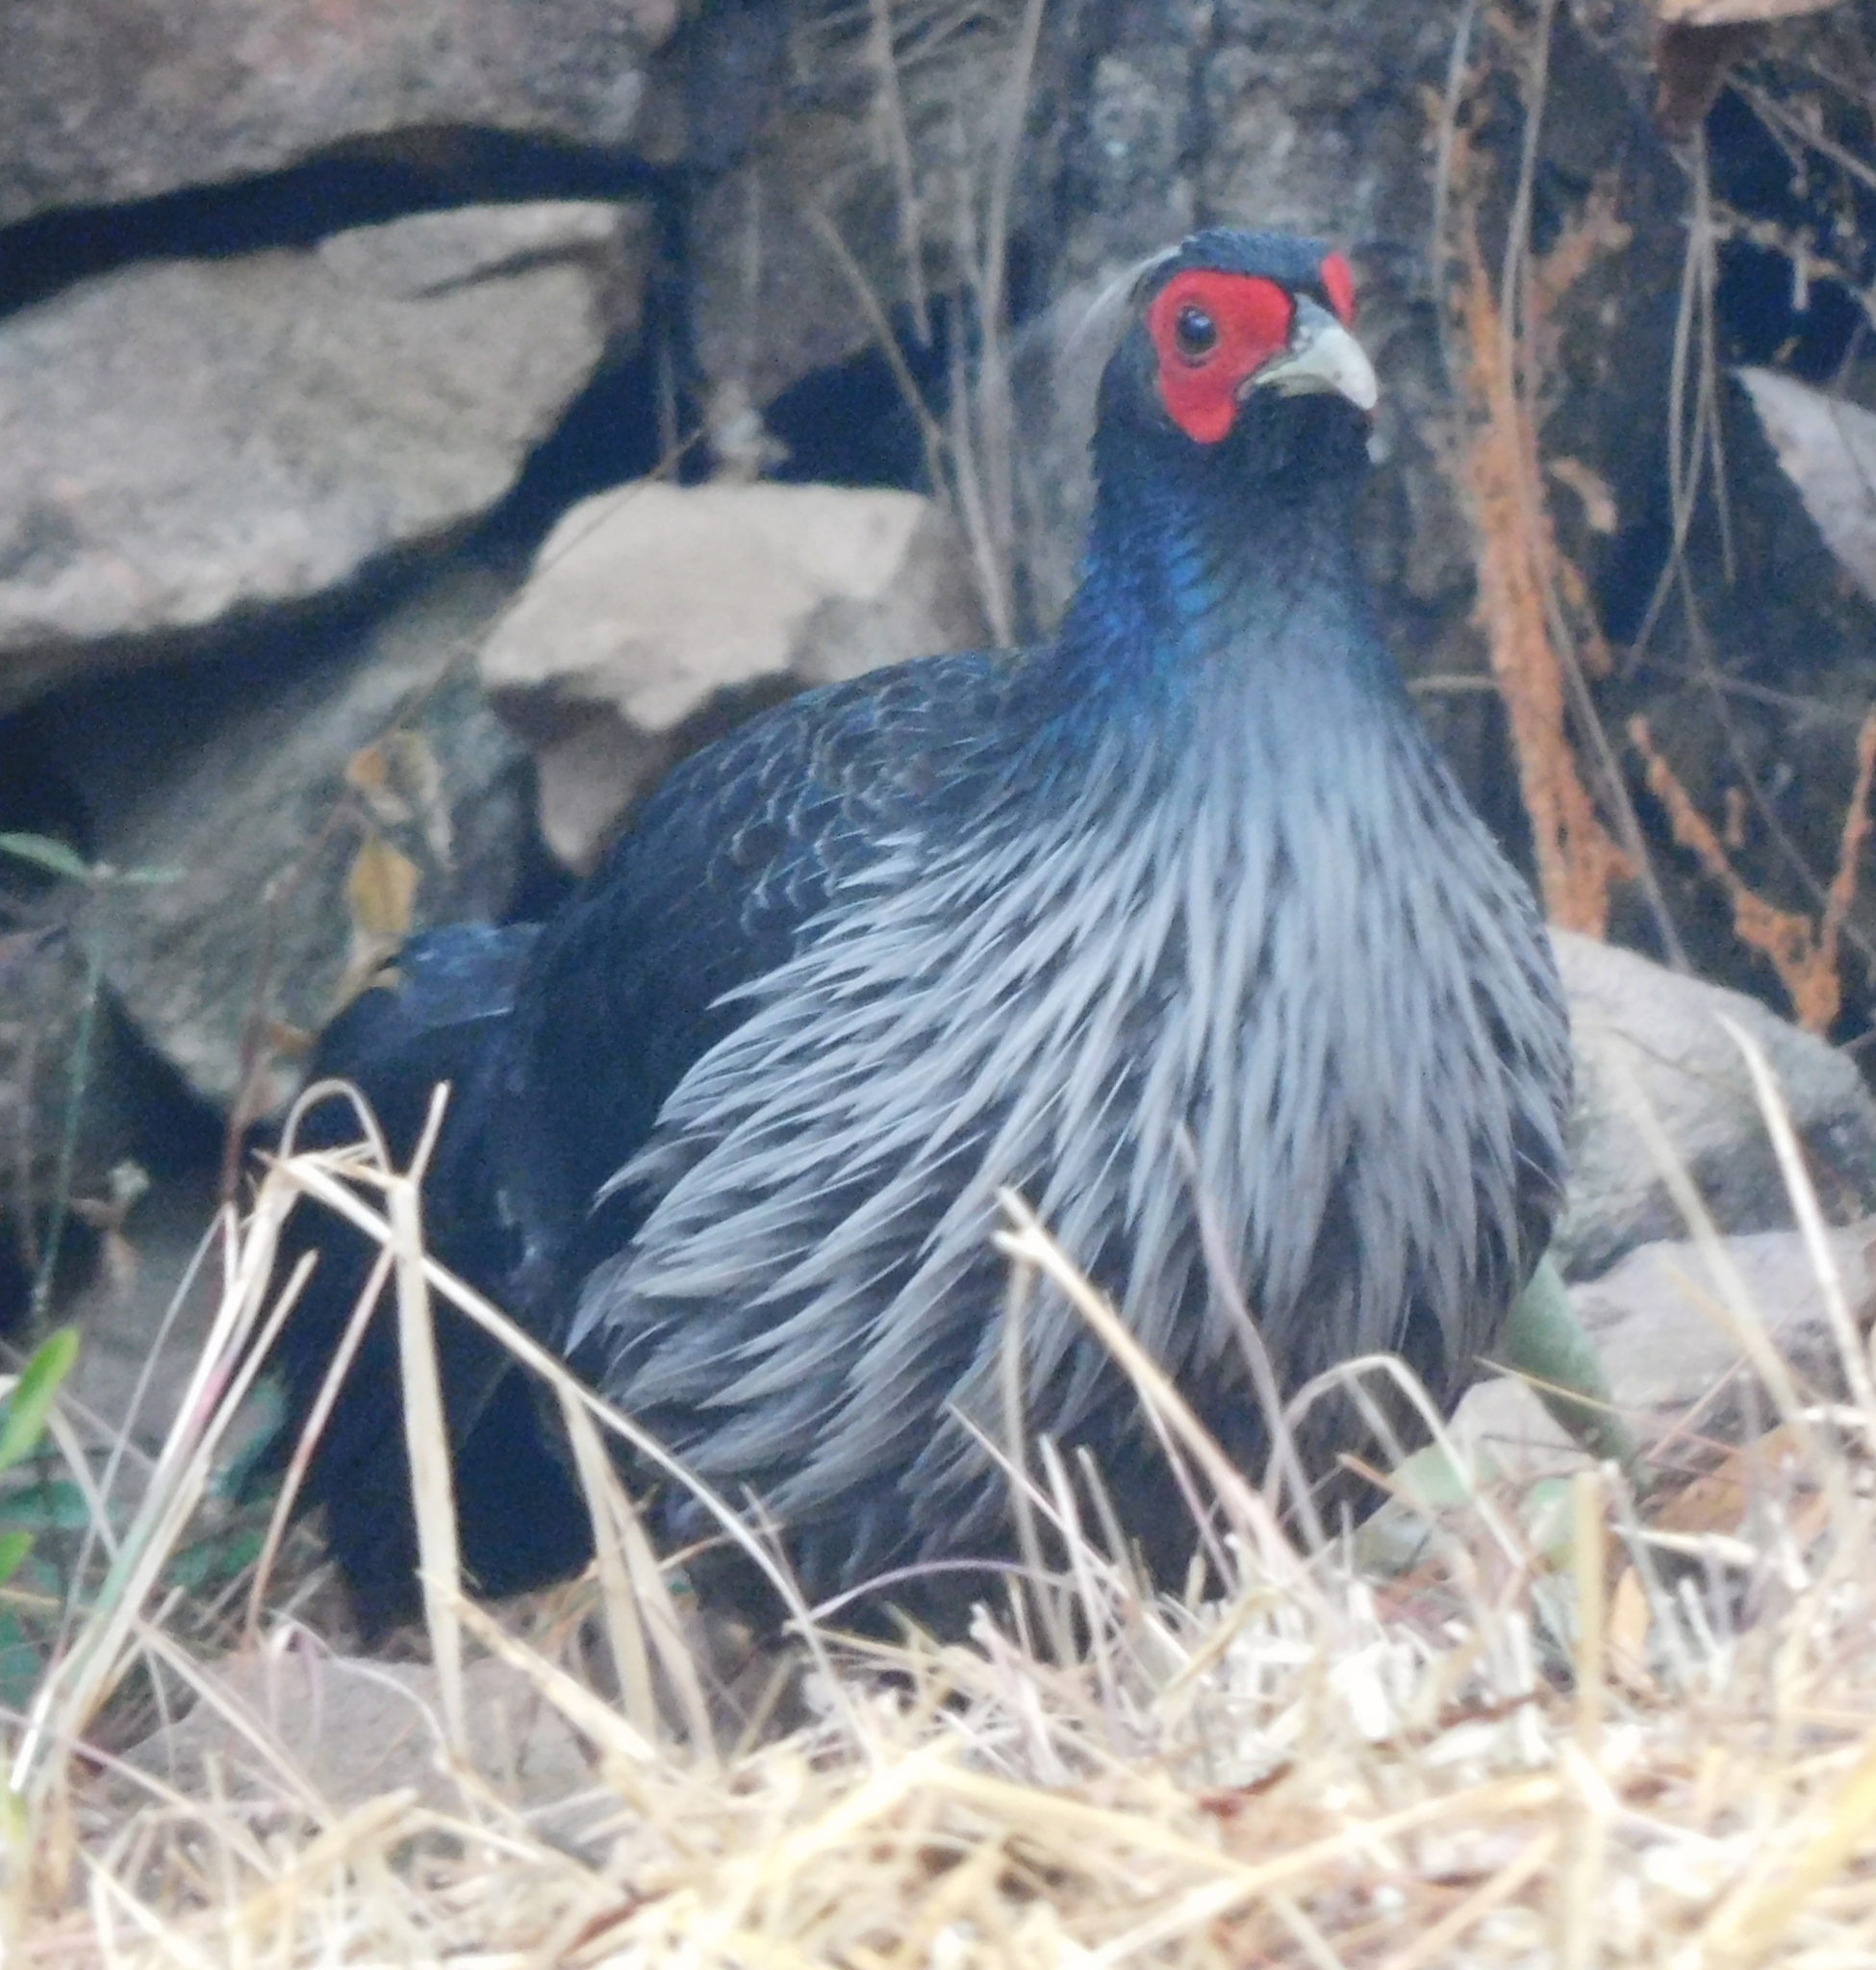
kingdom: Animalia
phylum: Chordata
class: Aves
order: Galliformes
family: Phasianidae
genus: Lophura
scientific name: Lophura leucomelanos
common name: Kalij pheasant
